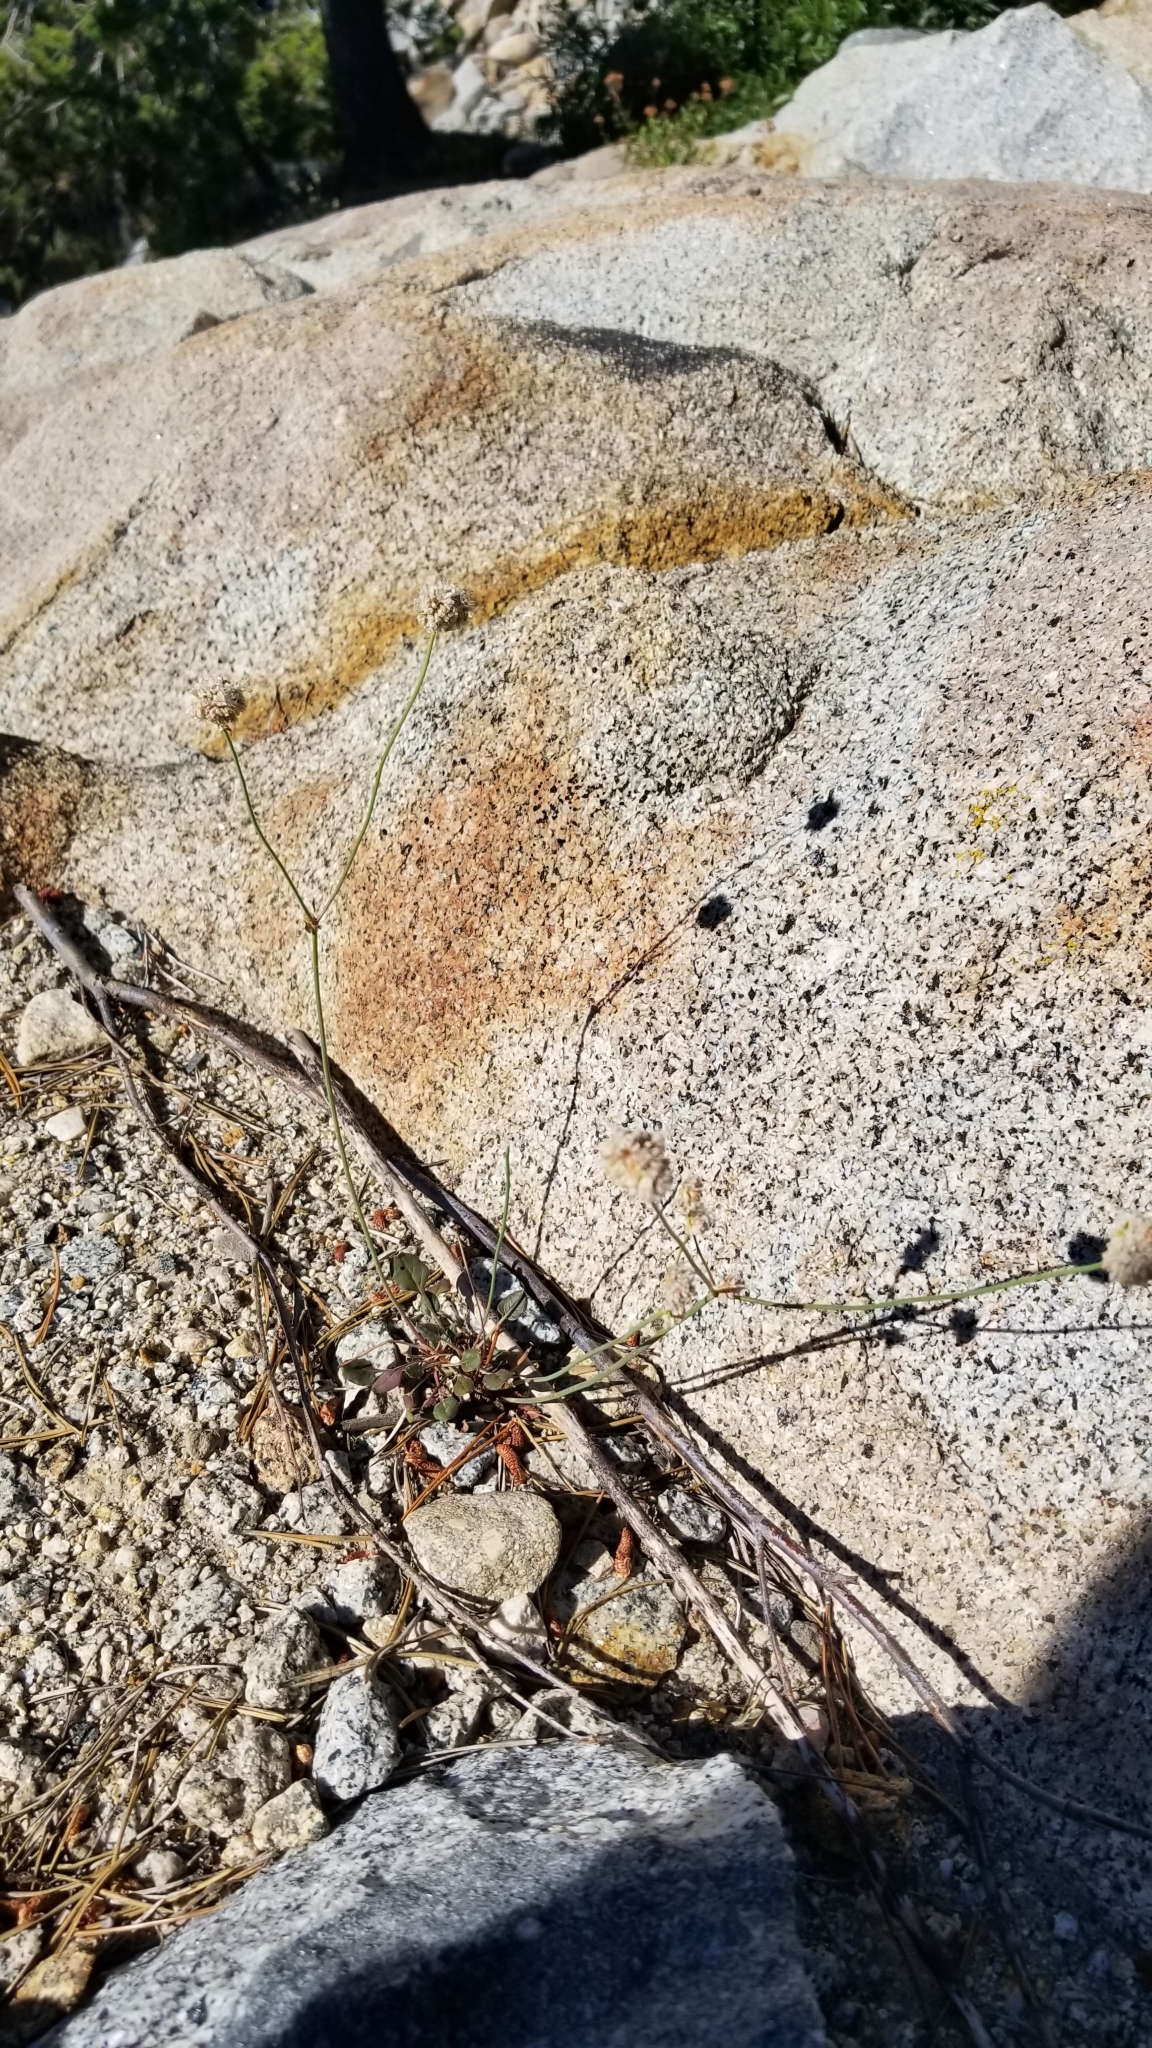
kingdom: Plantae
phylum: Tracheophyta
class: Magnoliopsida
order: Caryophyllales
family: Polygonaceae
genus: Eriogonum
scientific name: Eriogonum nudum
